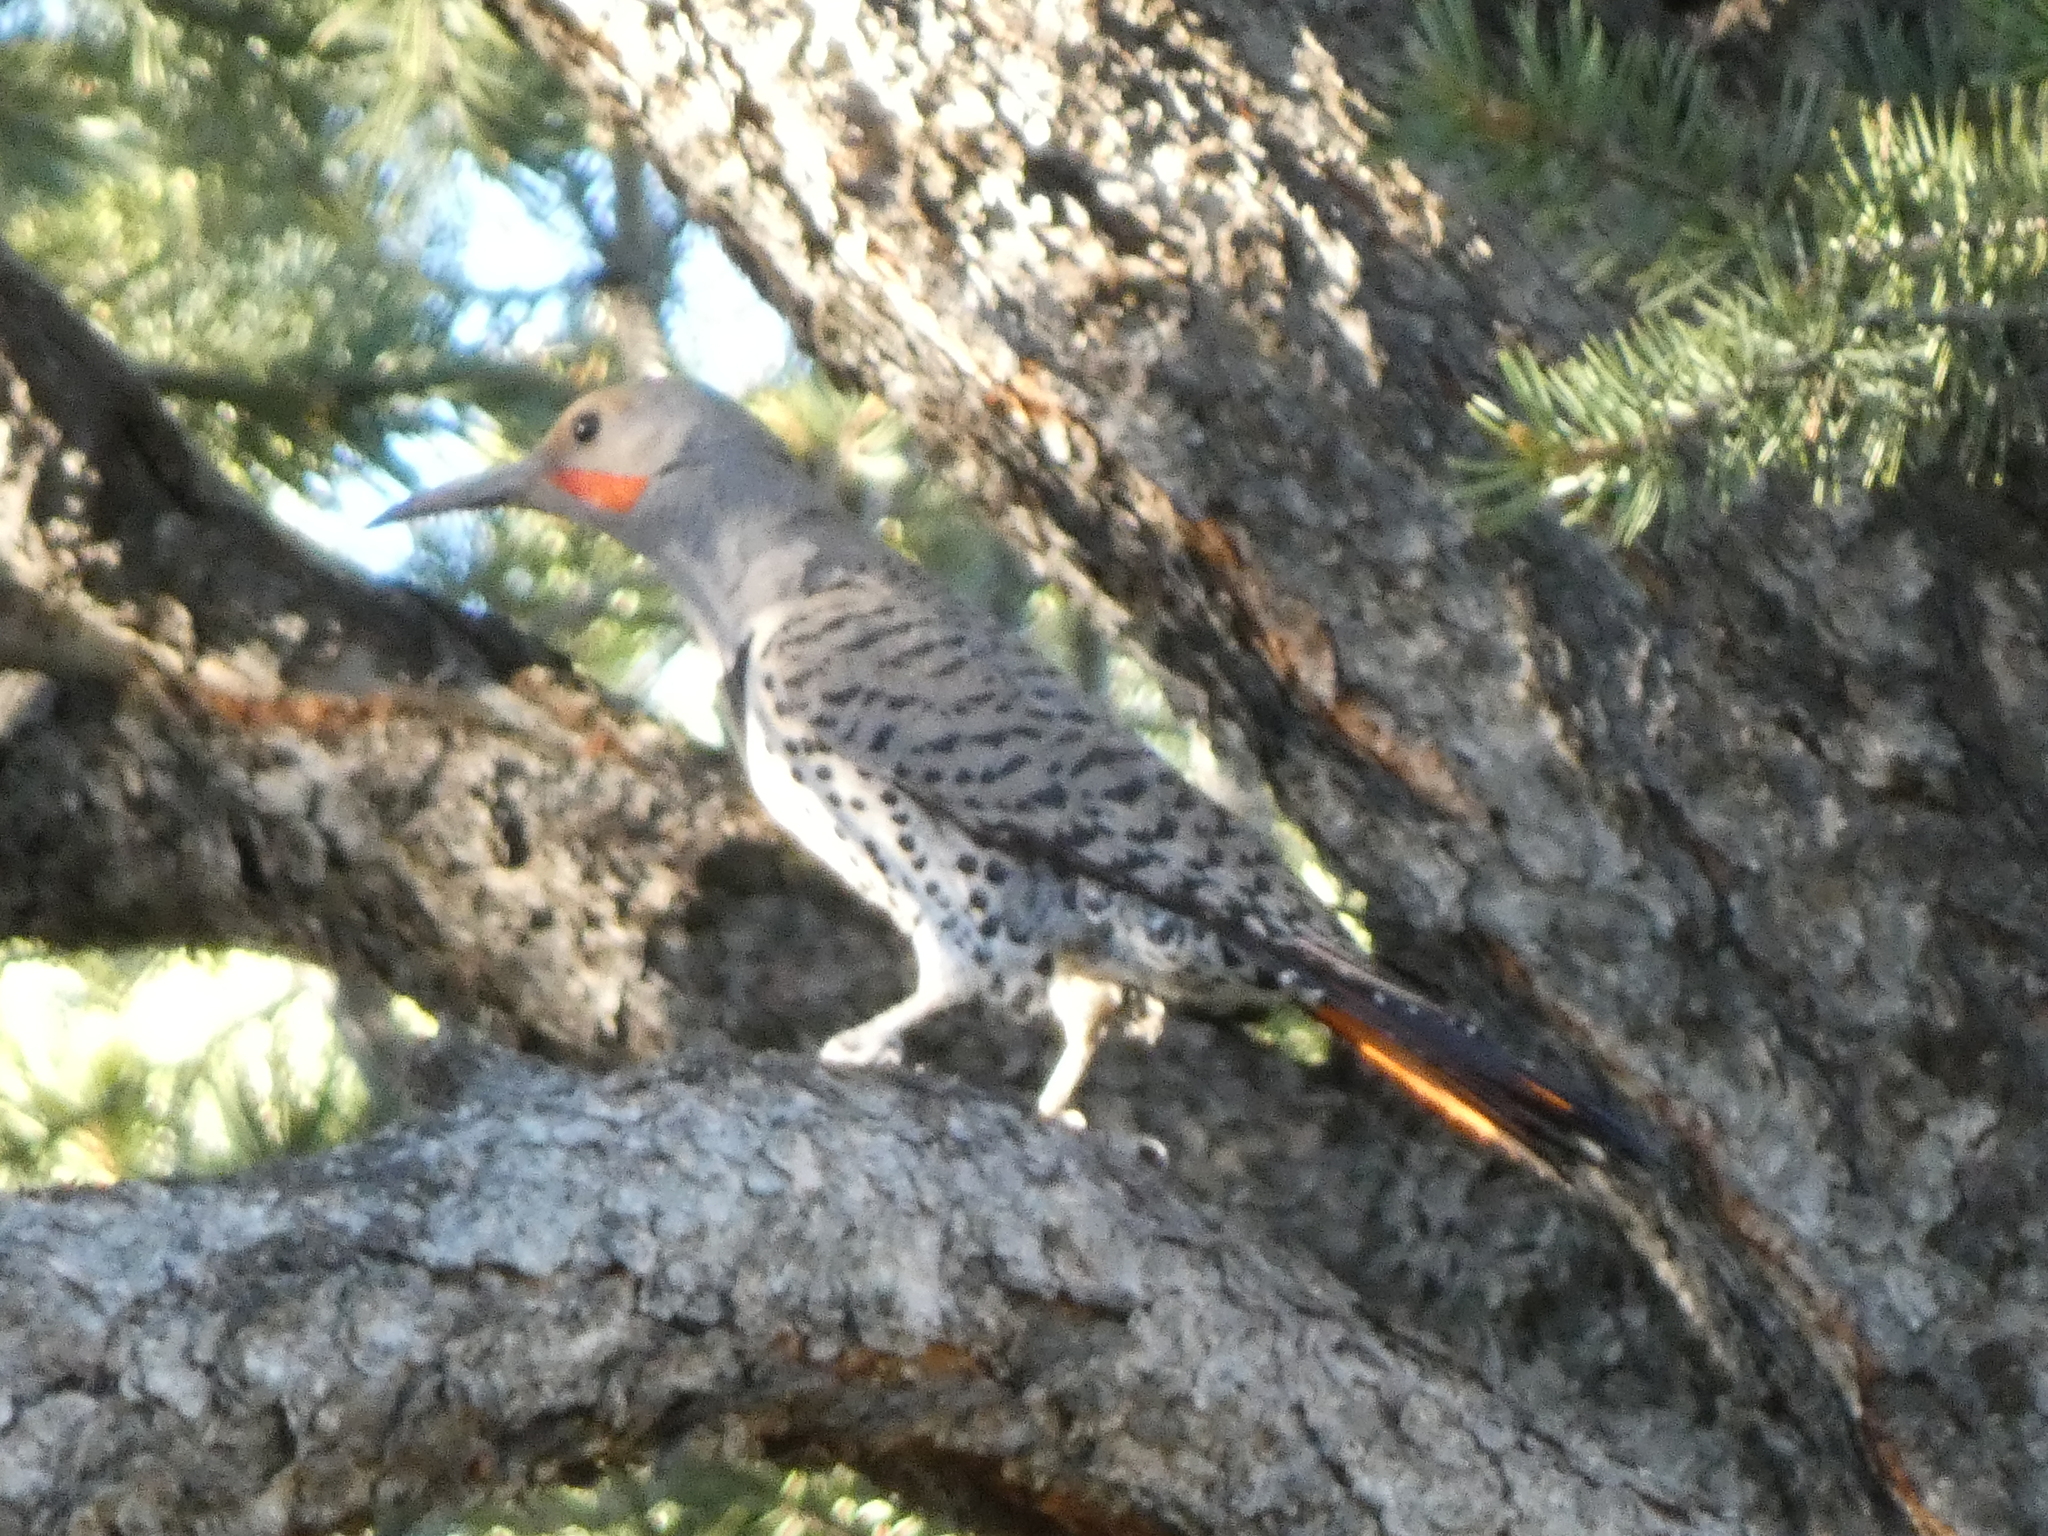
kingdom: Animalia
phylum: Chordata
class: Aves
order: Piciformes
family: Picidae
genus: Colaptes
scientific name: Colaptes auratus
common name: Northern flicker
